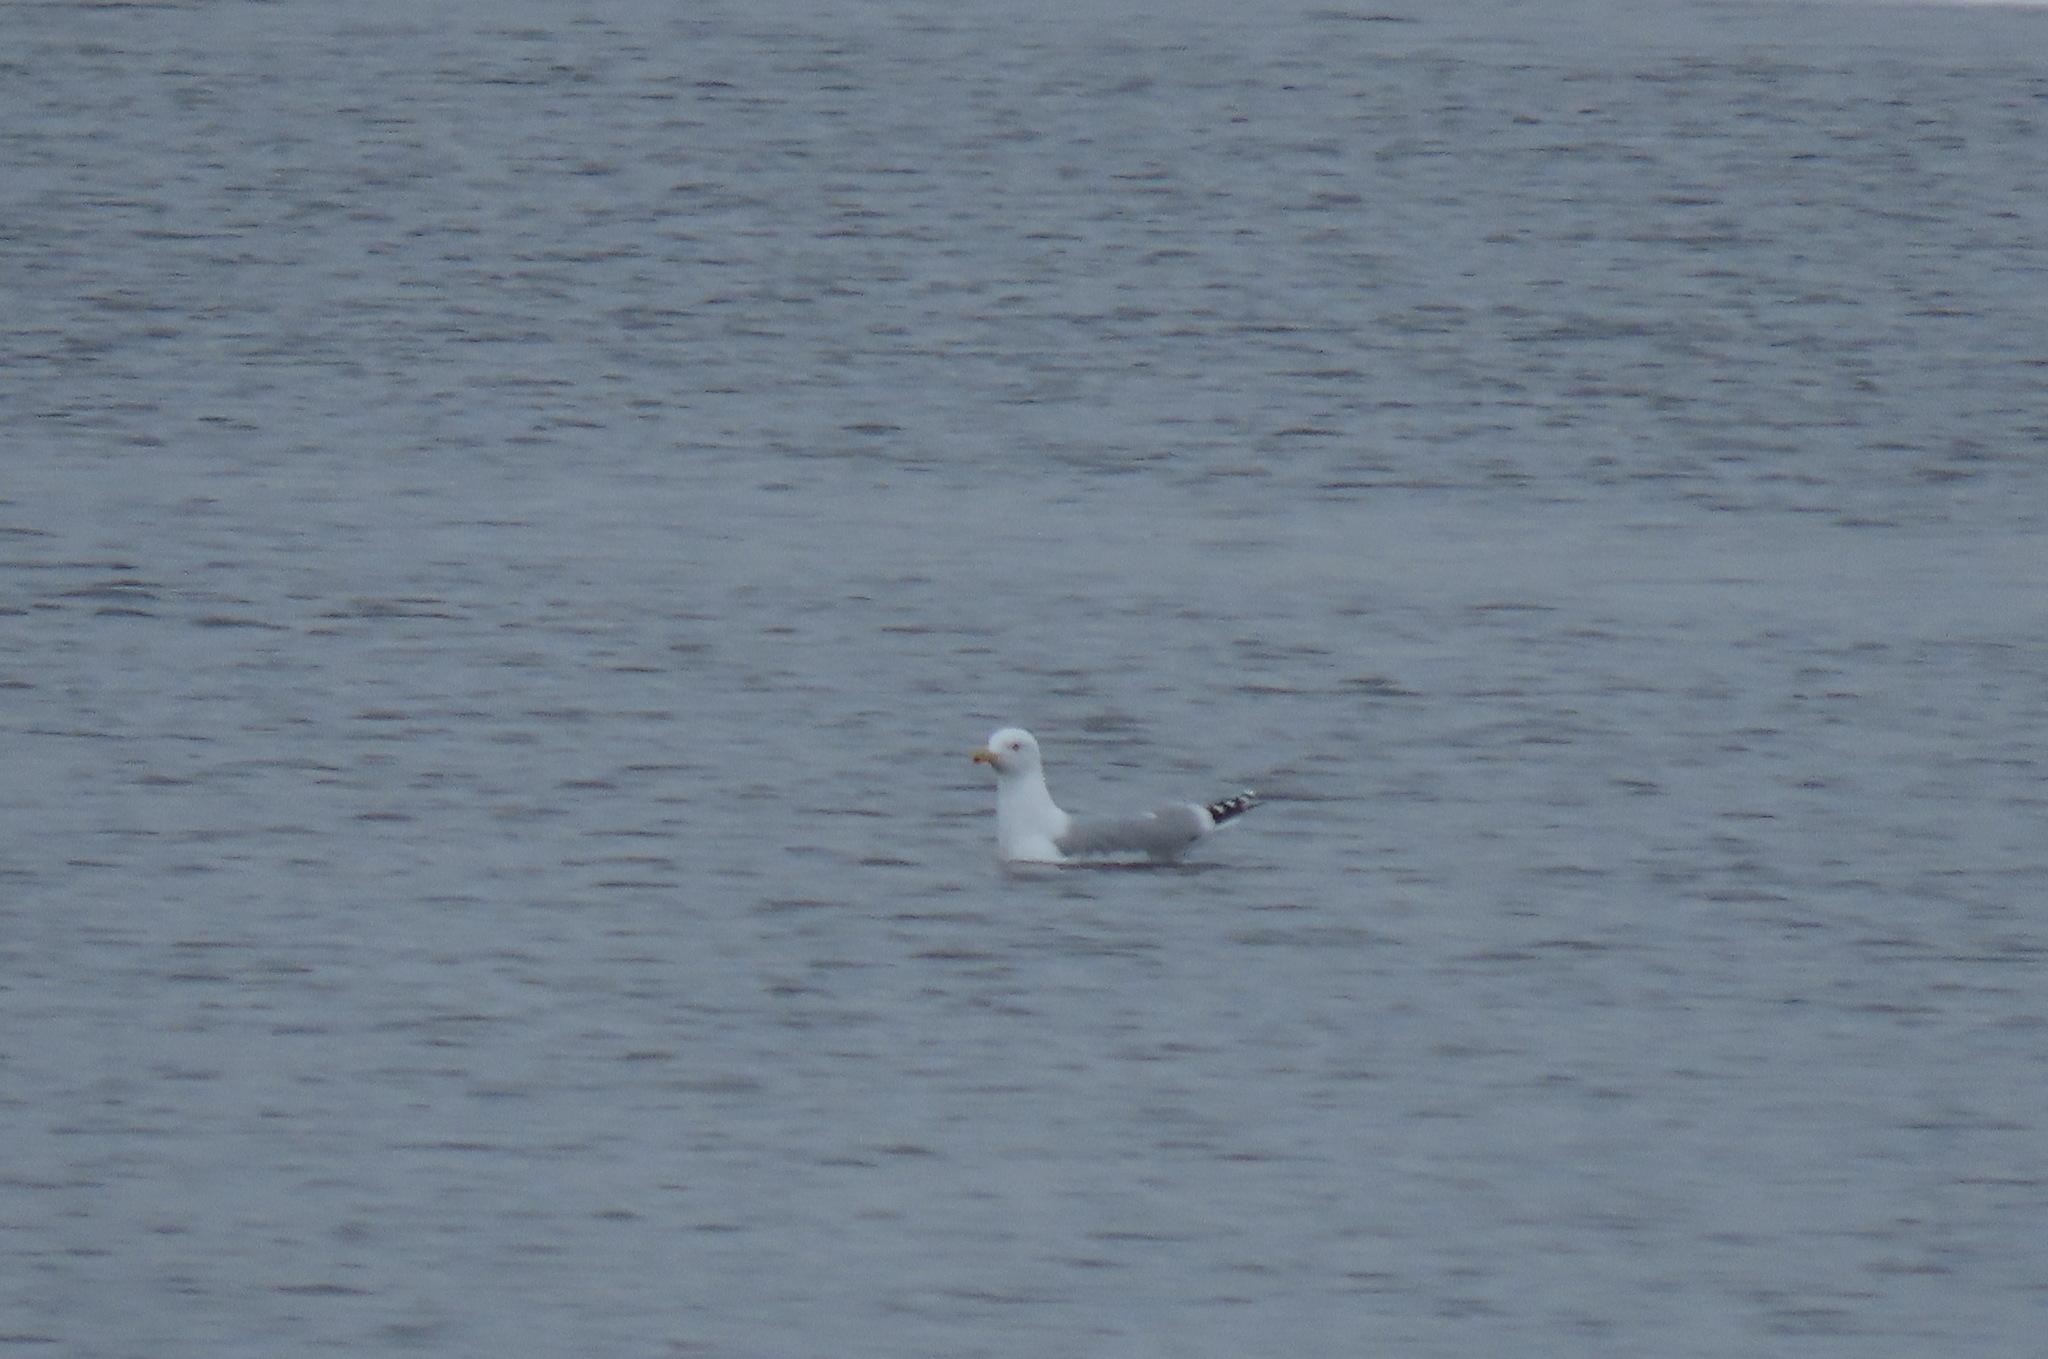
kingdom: Animalia
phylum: Chordata
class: Aves
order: Charadriiformes
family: Laridae
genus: Larus
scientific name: Larus argentatus
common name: Herring gull
